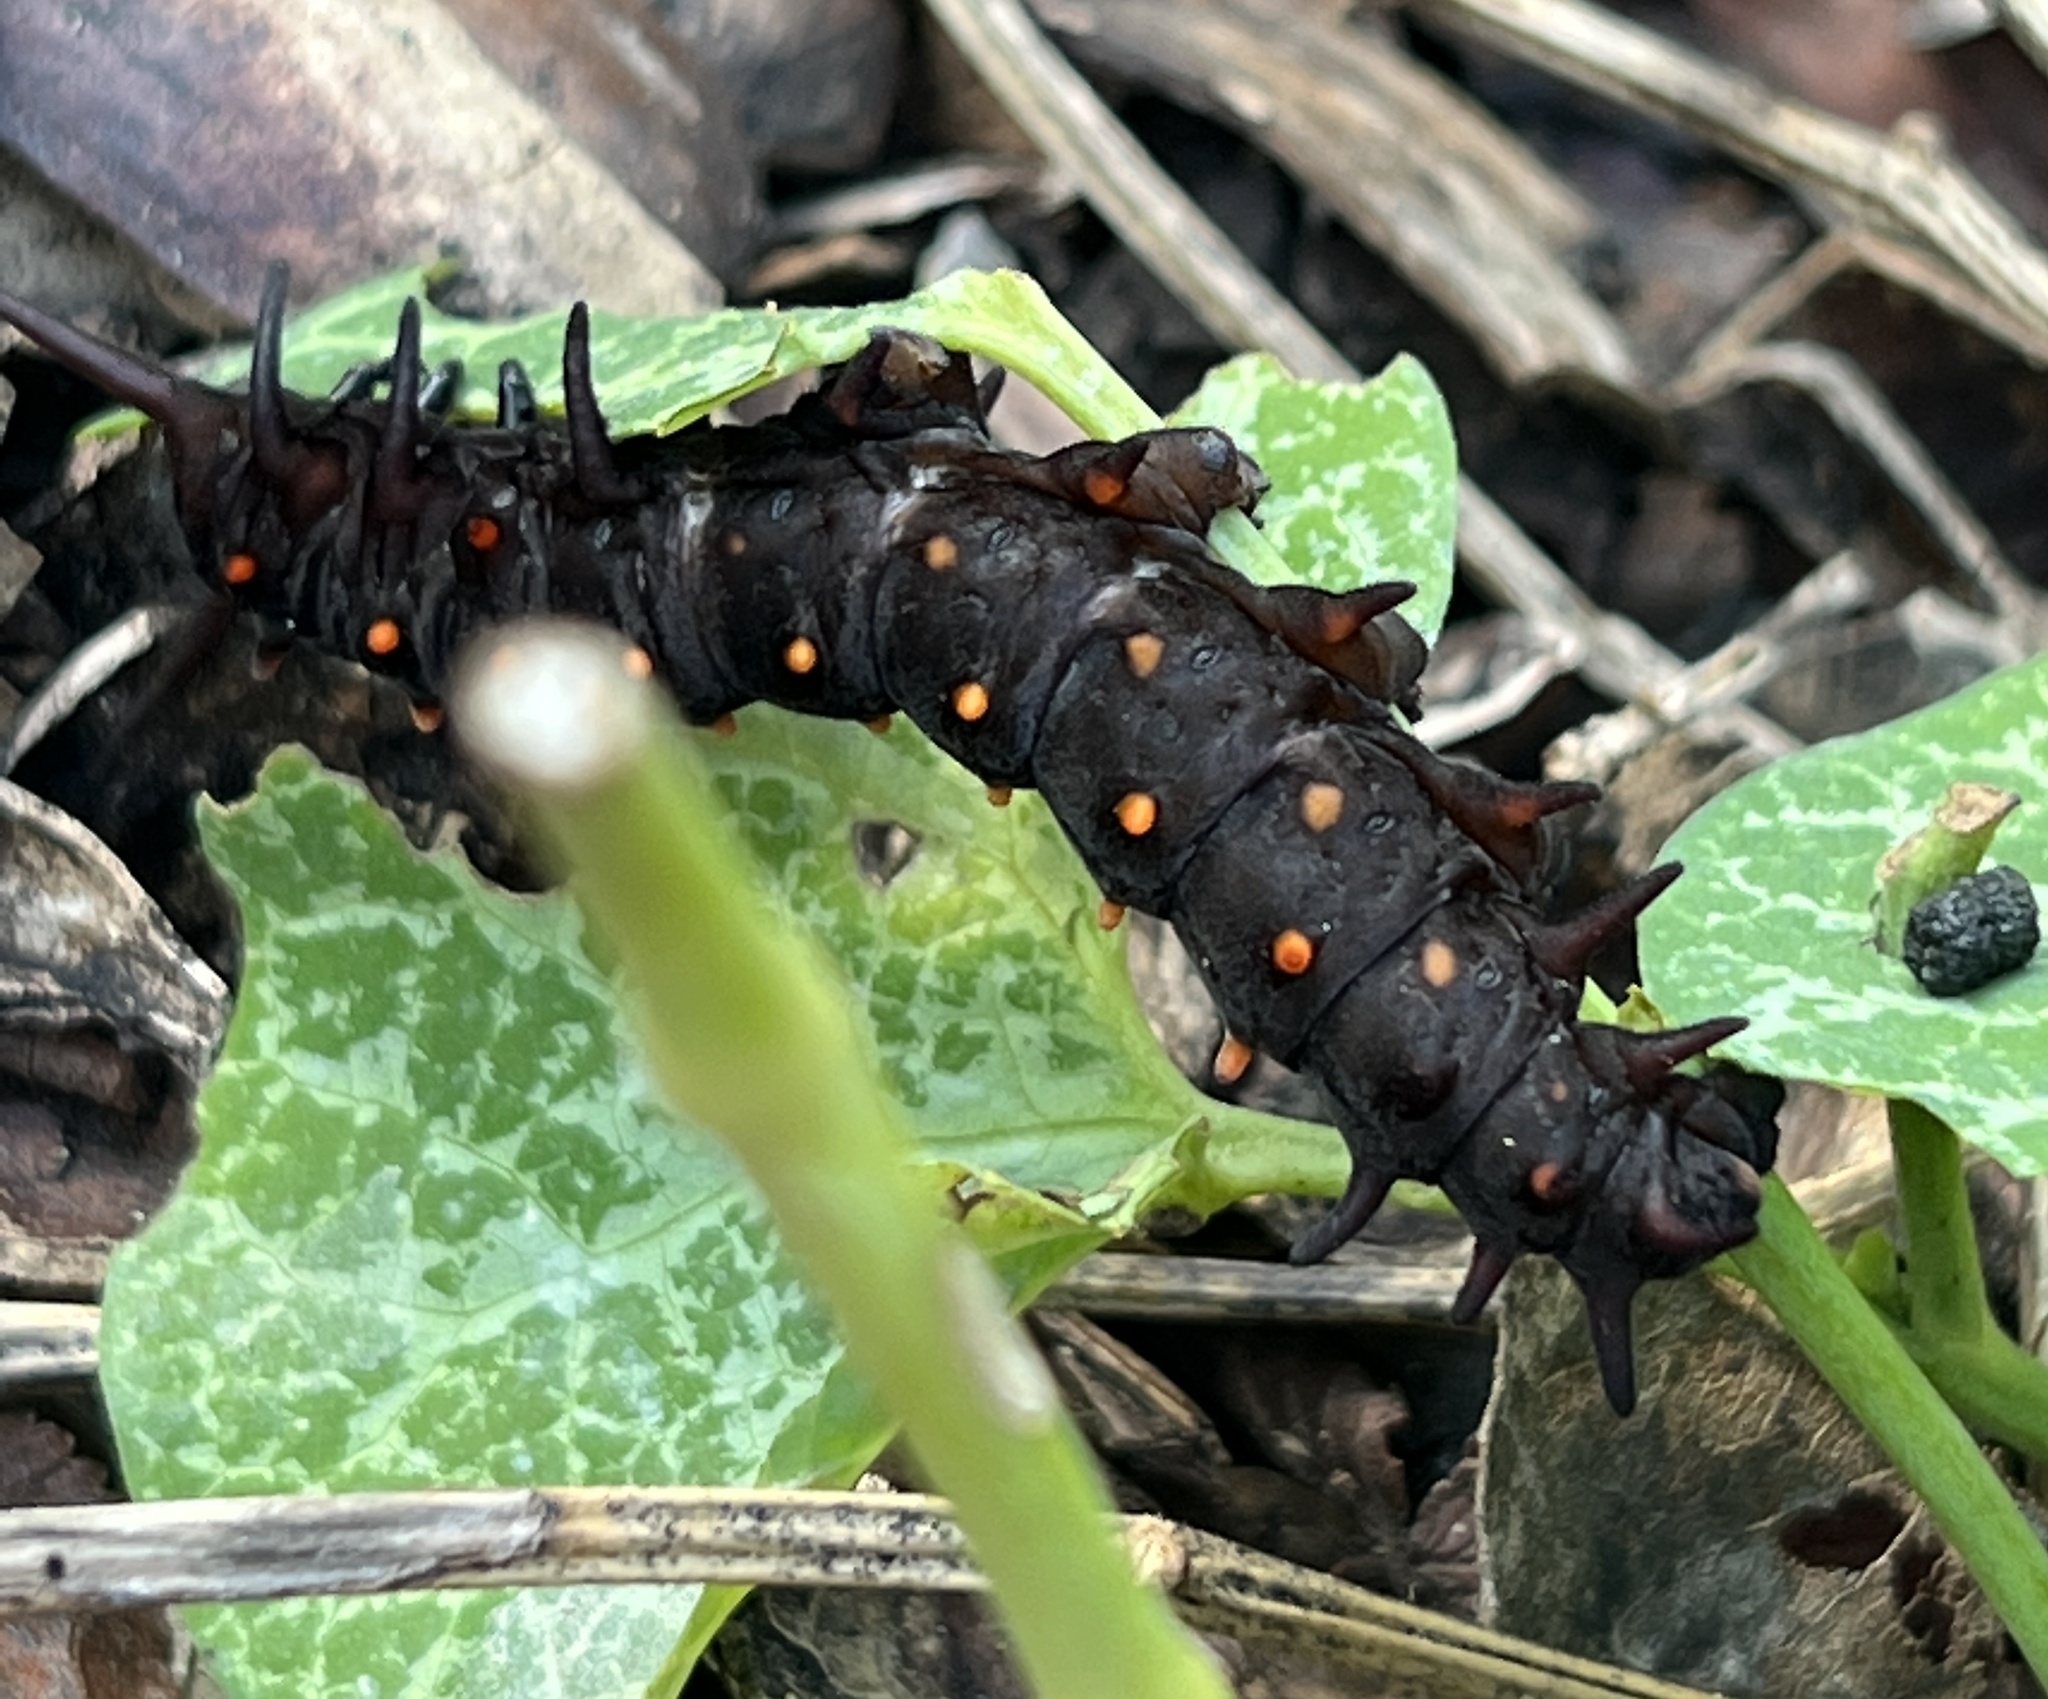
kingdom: Animalia
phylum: Arthropoda
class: Insecta
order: Lepidoptera
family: Papilionidae
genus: Battus
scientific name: Battus philenor
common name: Pipevine swallowtail
